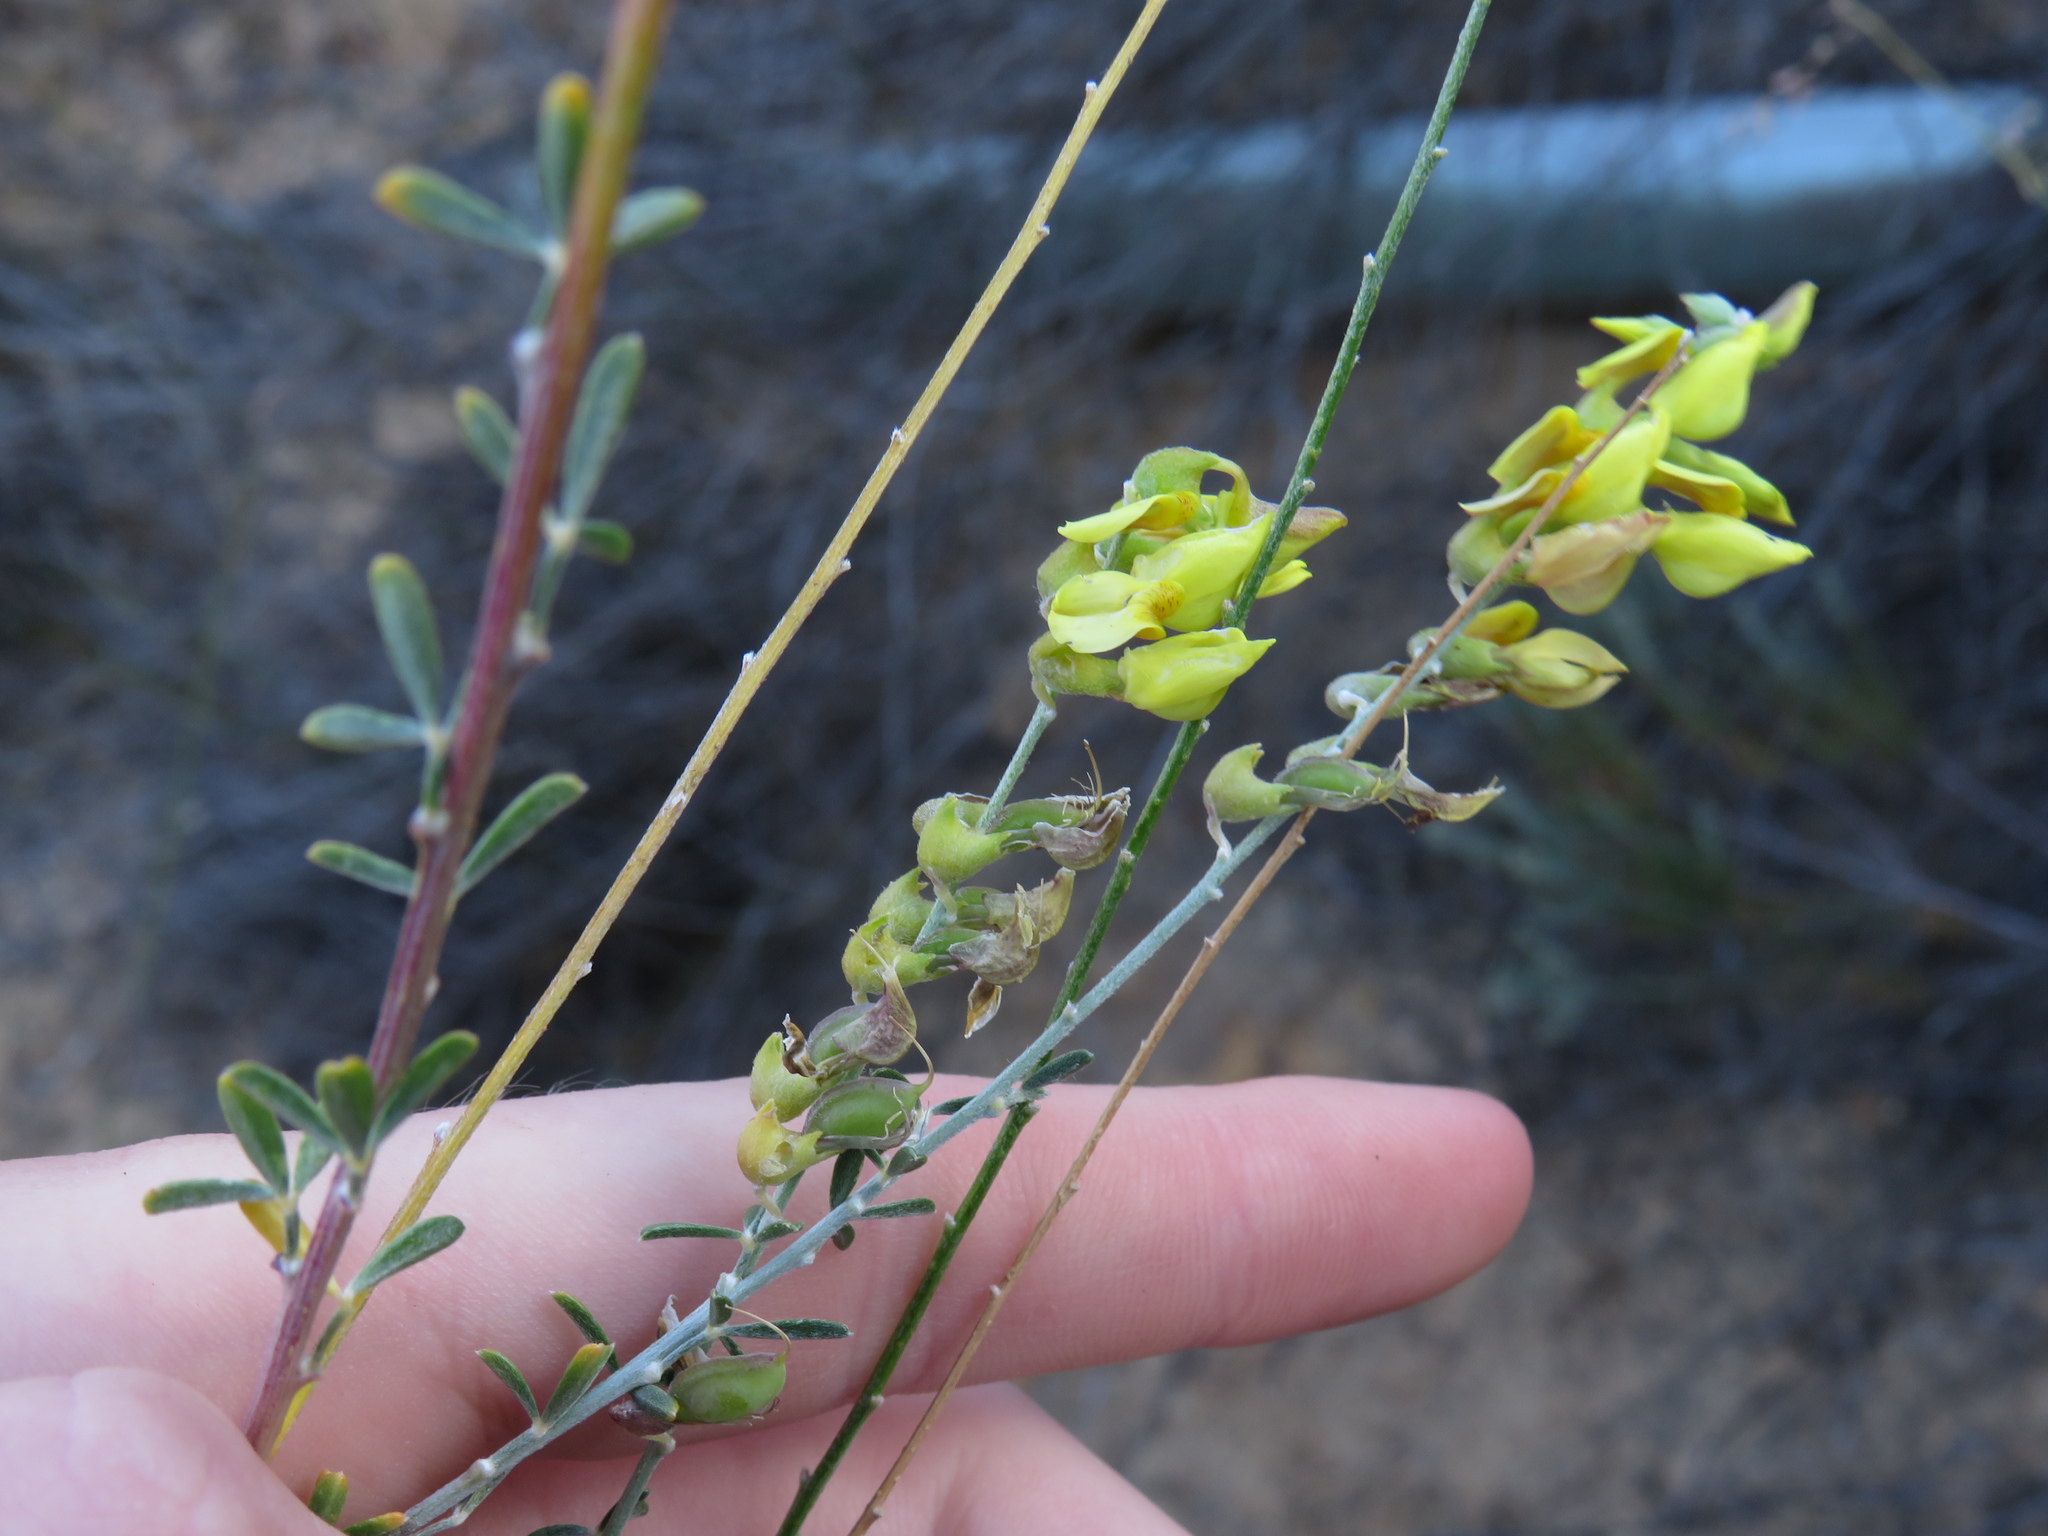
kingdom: Plantae
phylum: Tracheophyta
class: Magnoliopsida
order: Fabales
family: Fabaceae
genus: Wiborgia
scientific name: Wiborgia obcordata
